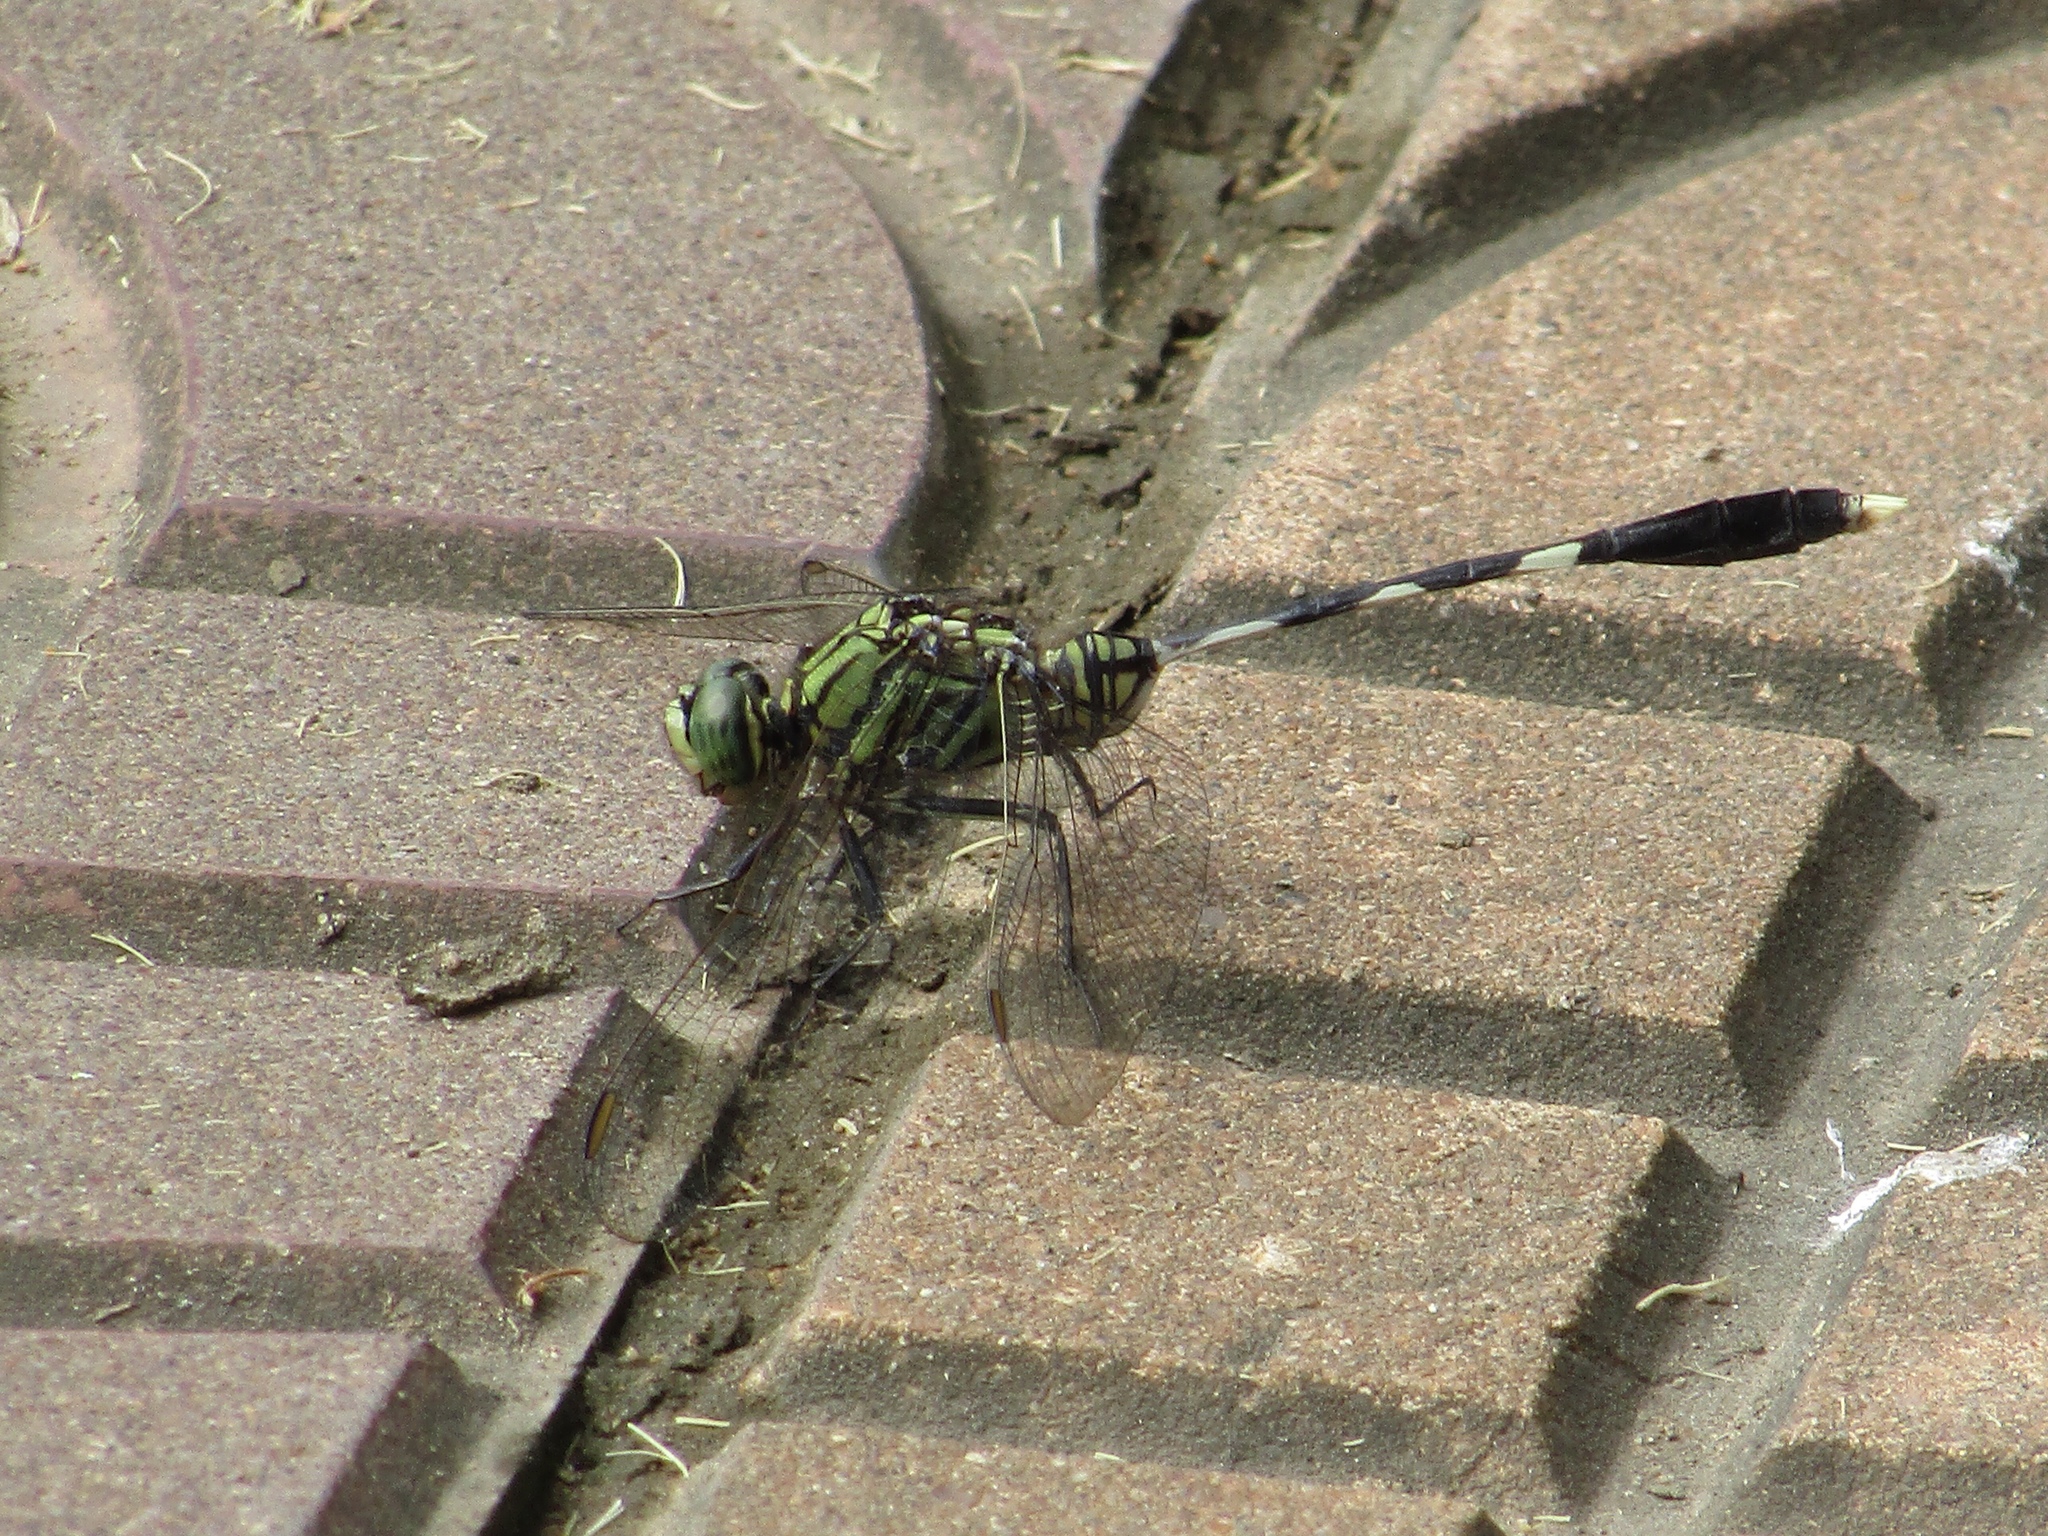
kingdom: Animalia
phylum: Arthropoda
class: Insecta
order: Odonata
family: Libellulidae
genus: Orthetrum
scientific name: Orthetrum sabina
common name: Slender skimmer
